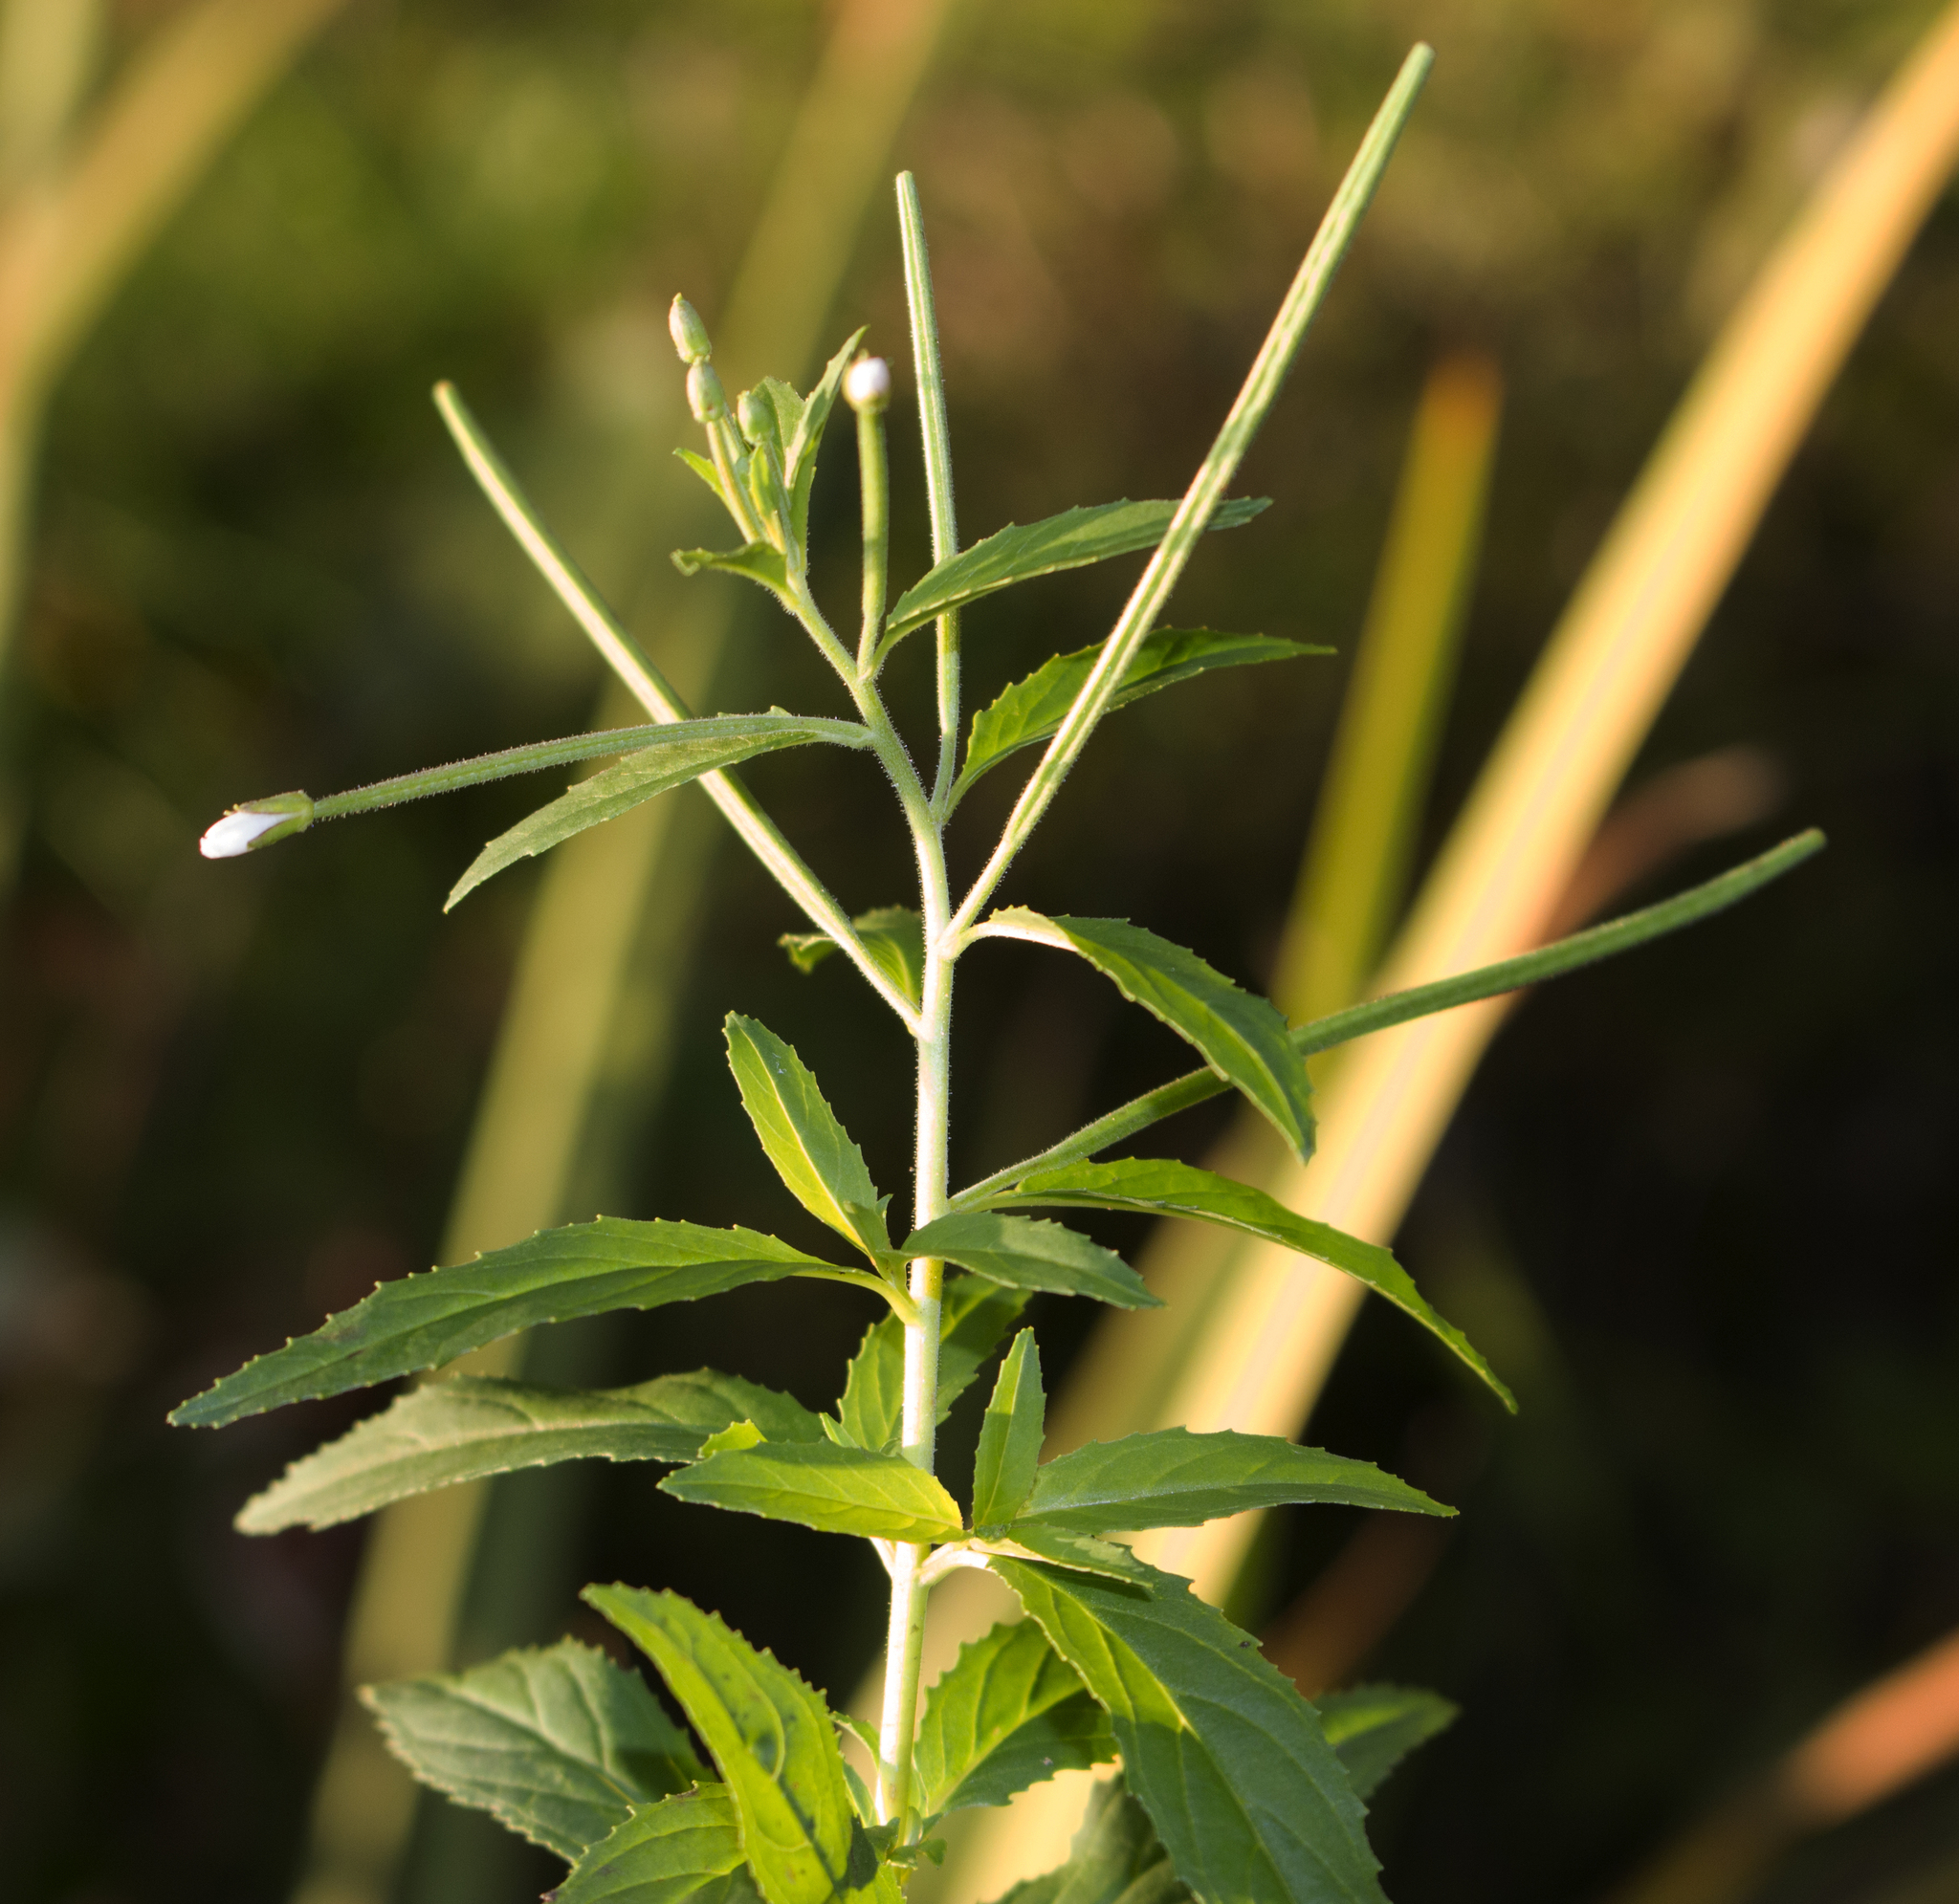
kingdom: Plantae
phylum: Tracheophyta
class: Magnoliopsida
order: Myrtales
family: Onagraceae
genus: Epilobium
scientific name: Epilobium coloratum
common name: Bronze willowherb
